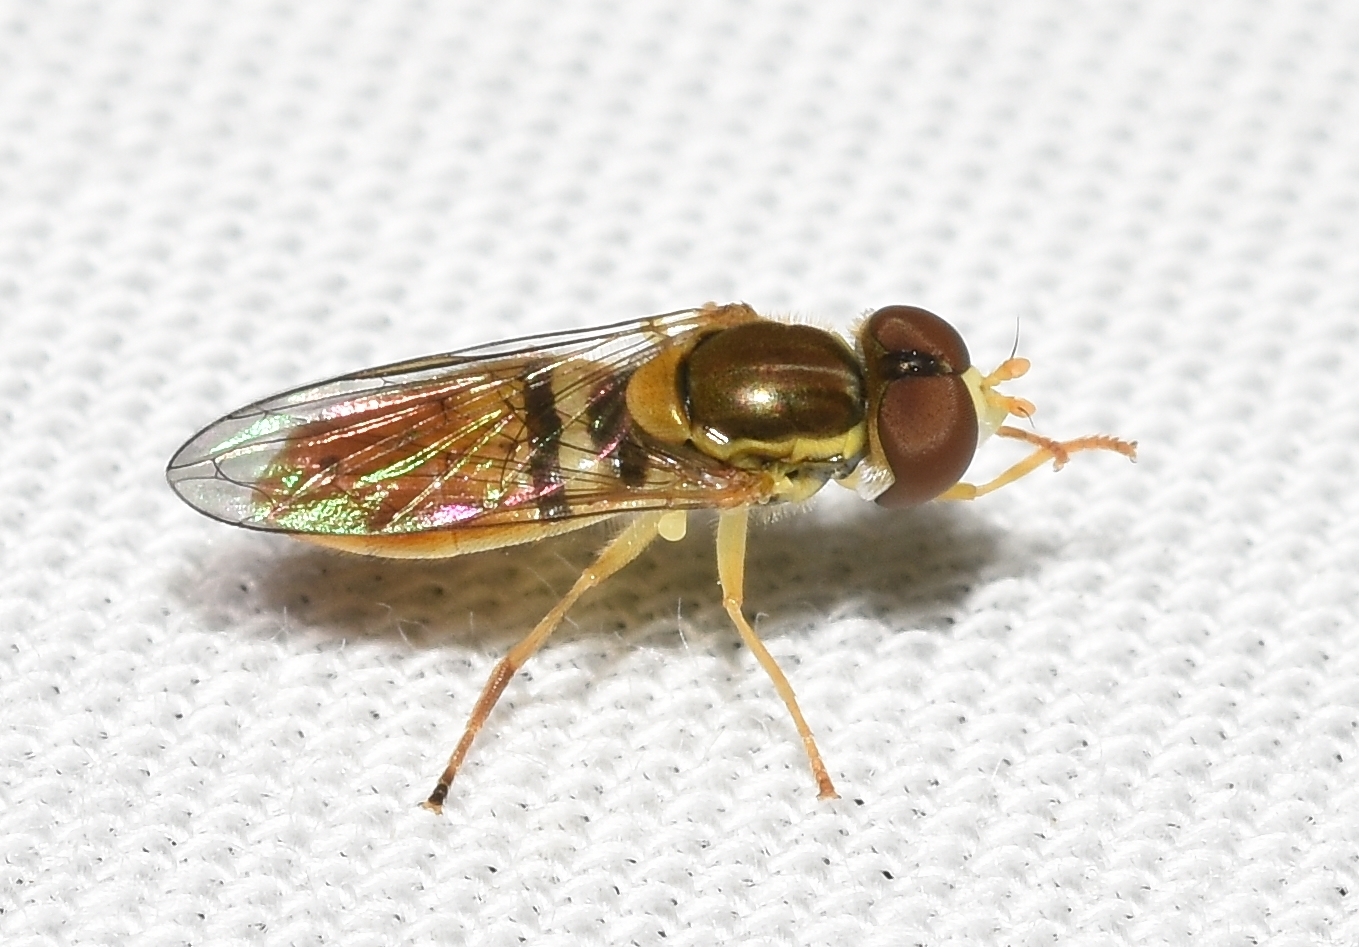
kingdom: Animalia
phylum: Arthropoda
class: Insecta
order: Diptera
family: Syrphidae
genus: Toxomerus
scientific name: Toxomerus marginatus
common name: Syrphid fly
